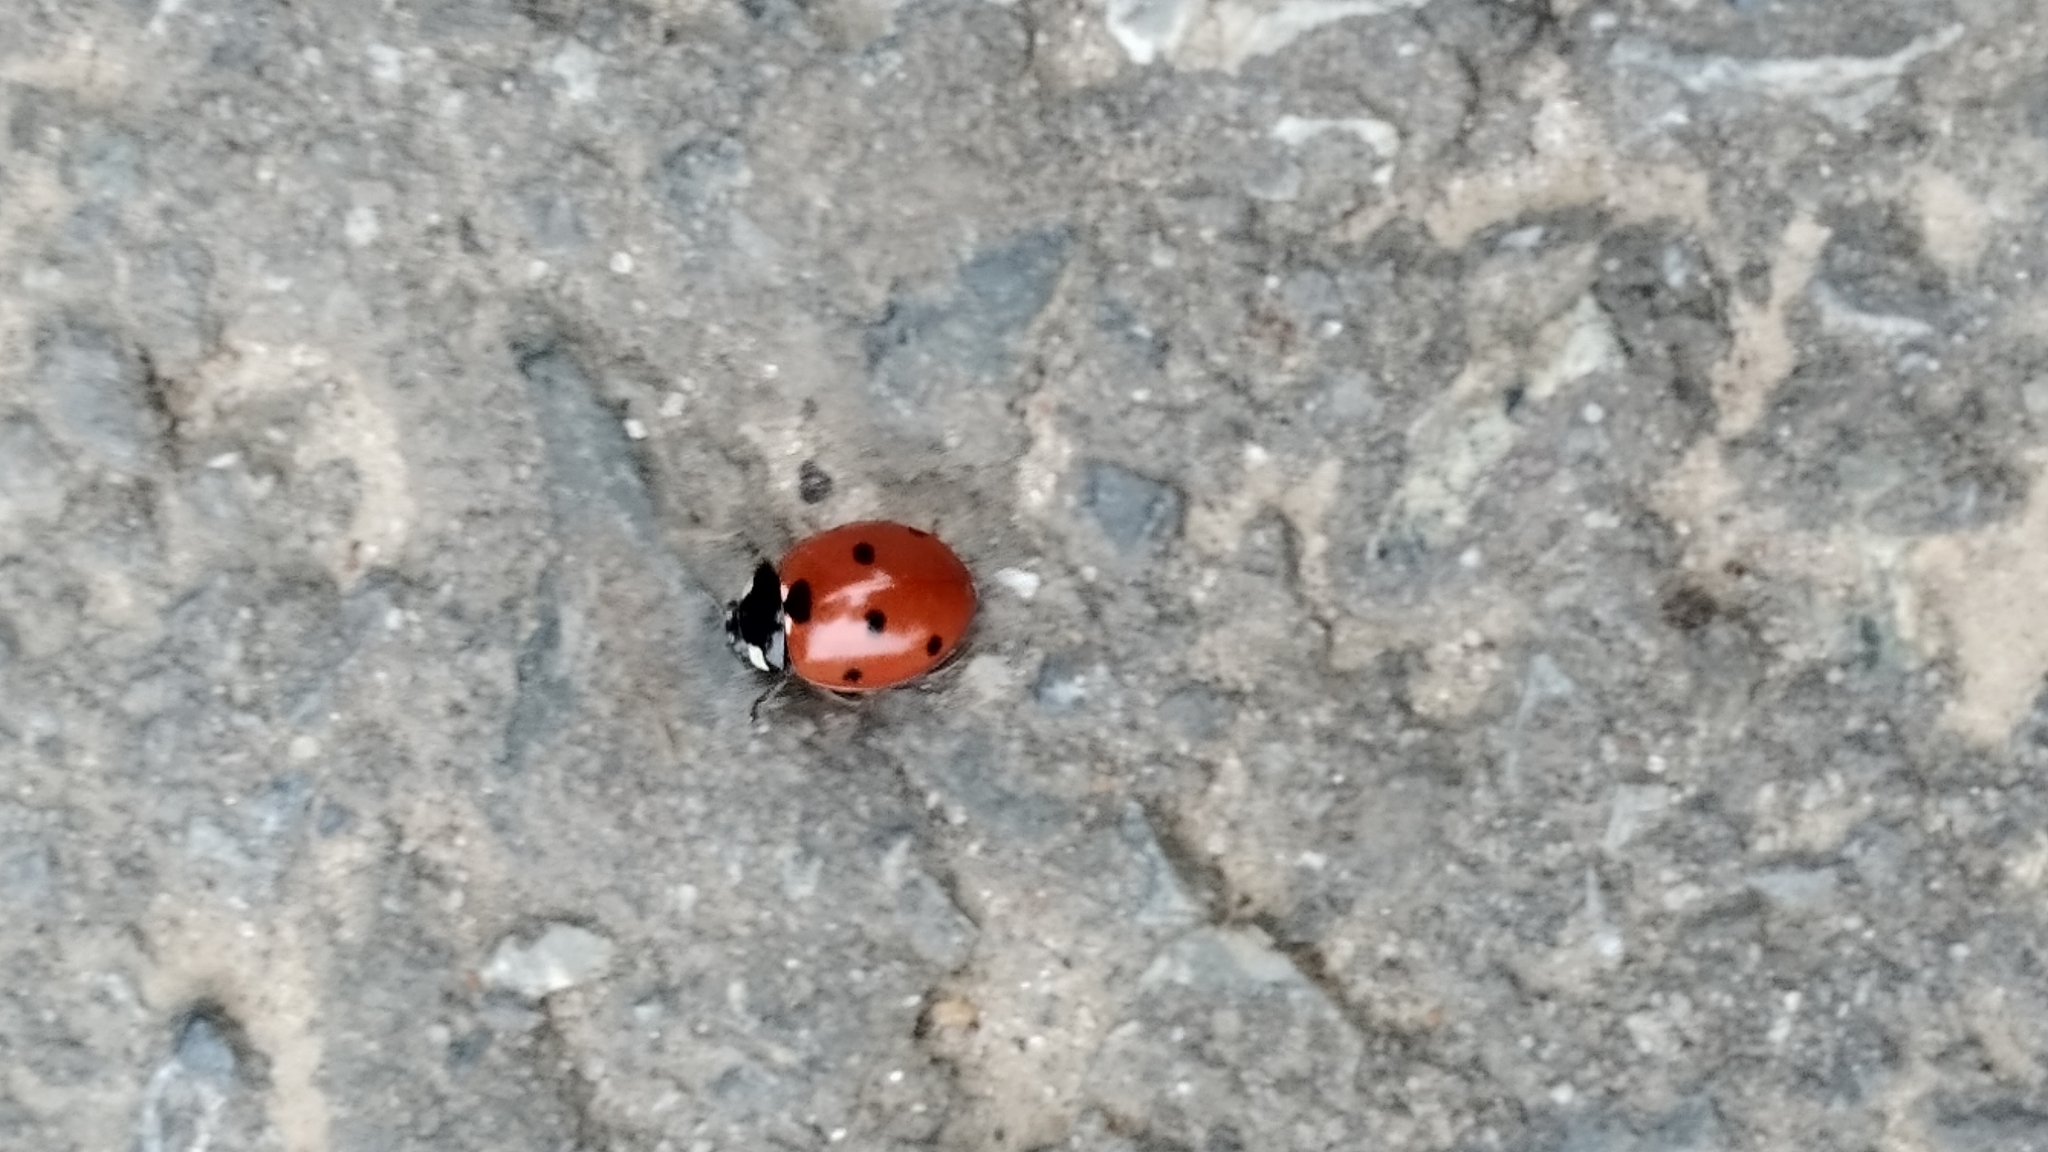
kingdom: Animalia
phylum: Arthropoda
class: Insecta
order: Coleoptera
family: Coccinellidae
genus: Coccinella
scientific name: Coccinella septempunctata
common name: Sevenspotted lady beetle
